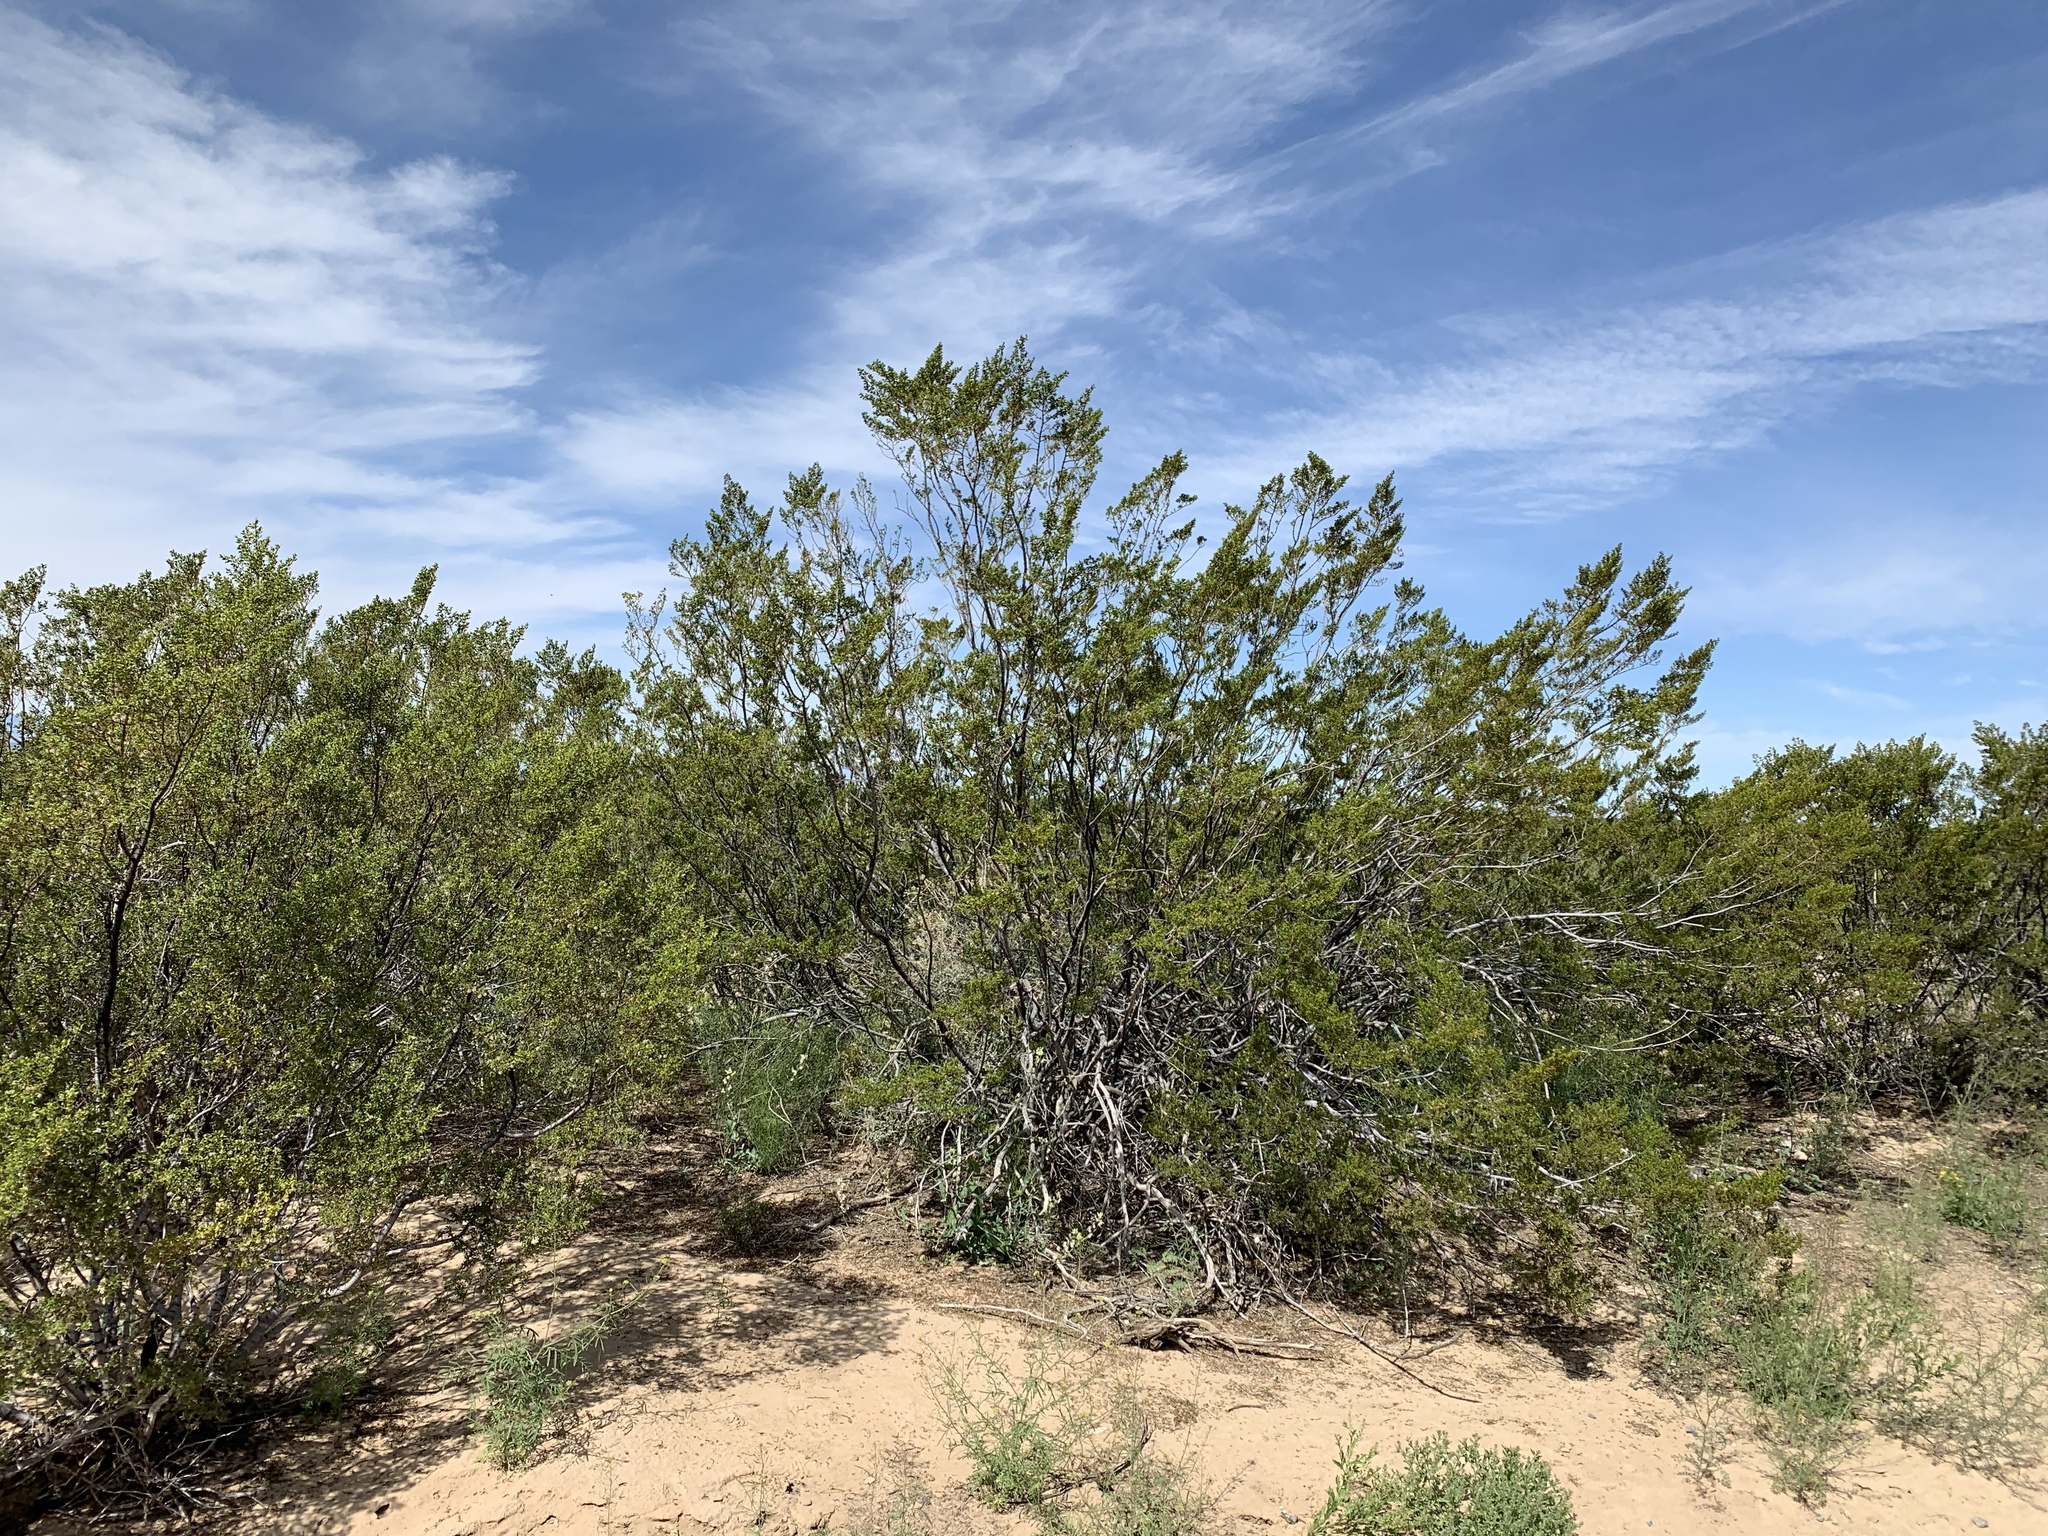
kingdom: Plantae
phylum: Tracheophyta
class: Magnoliopsida
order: Zygophyllales
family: Zygophyllaceae
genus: Larrea
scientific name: Larrea tridentata
